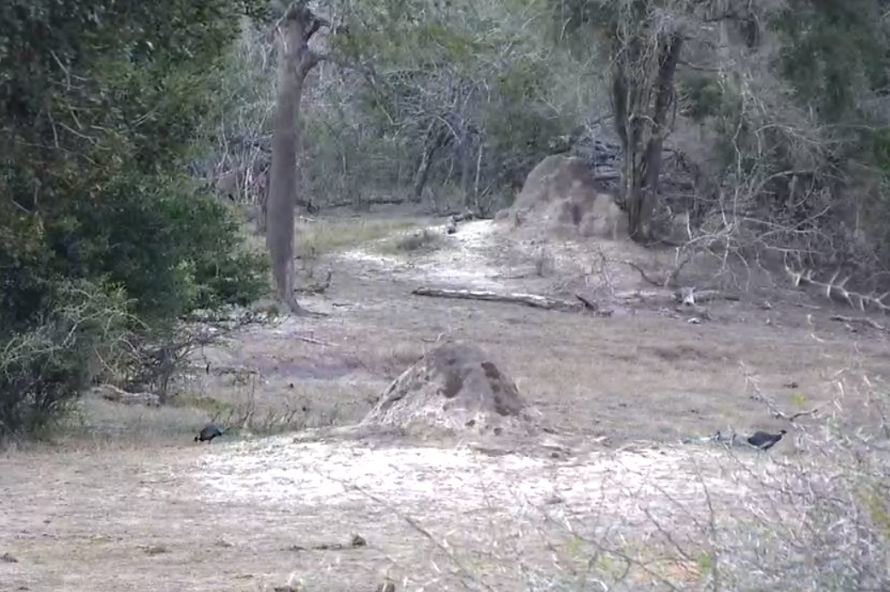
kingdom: Animalia
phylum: Chordata
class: Aves
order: Galliformes
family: Numididae
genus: Guttera
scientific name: Guttera pucherani
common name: Crested guineafowl
